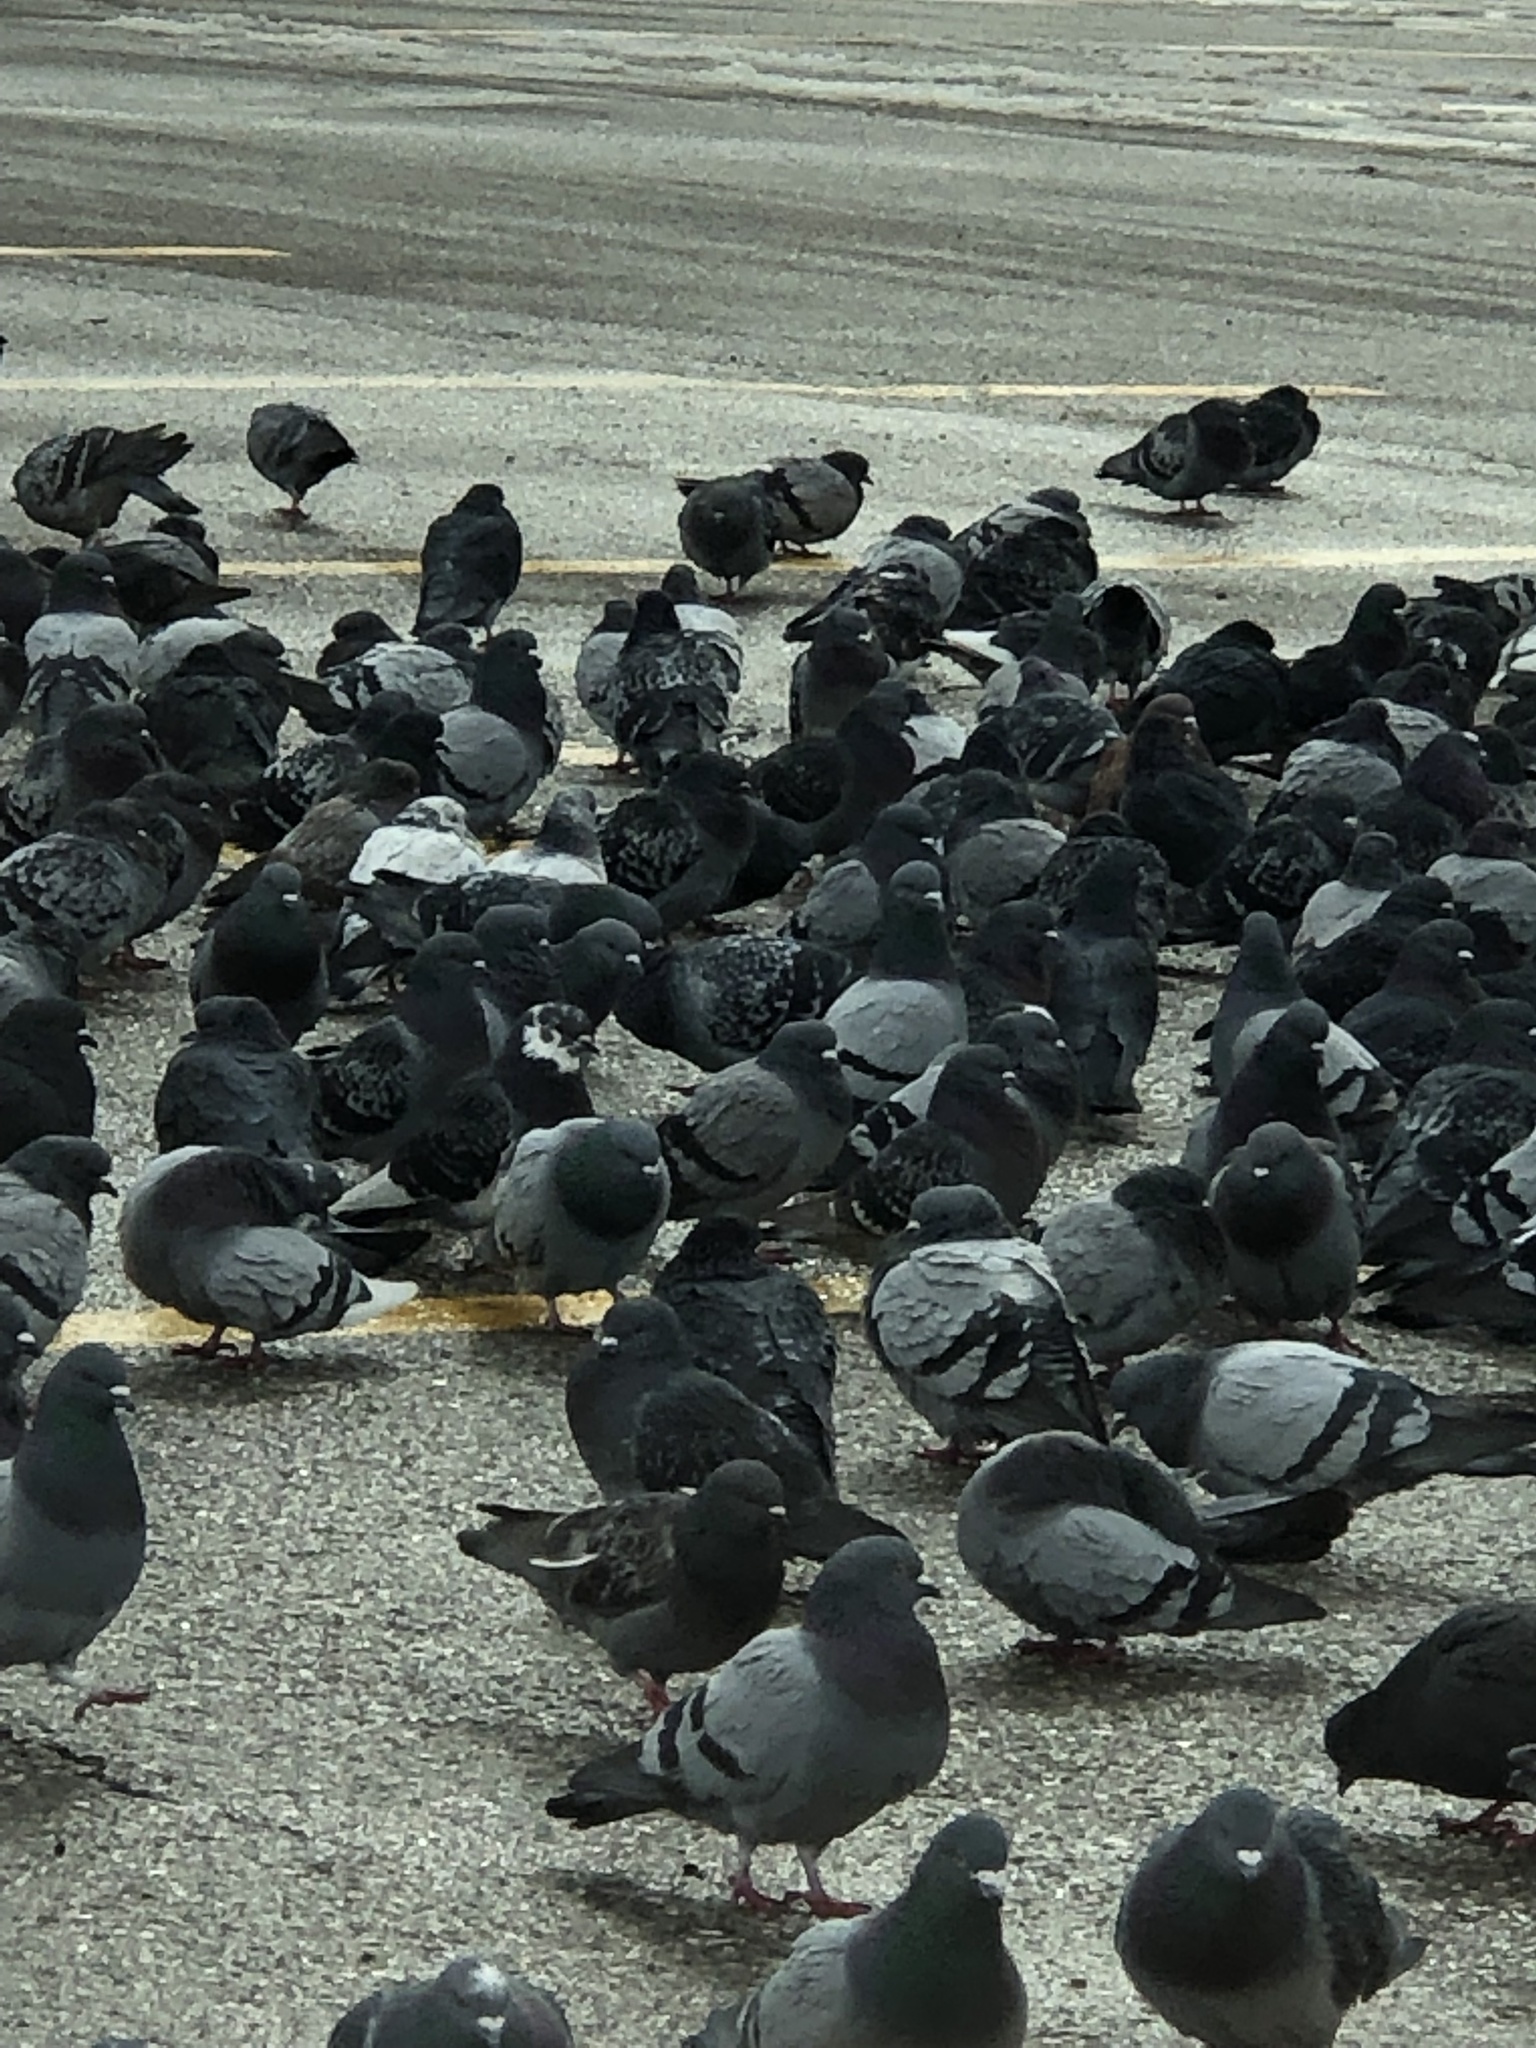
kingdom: Animalia
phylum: Chordata
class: Aves
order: Columbiformes
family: Columbidae
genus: Columba
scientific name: Columba livia
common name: Rock pigeon
